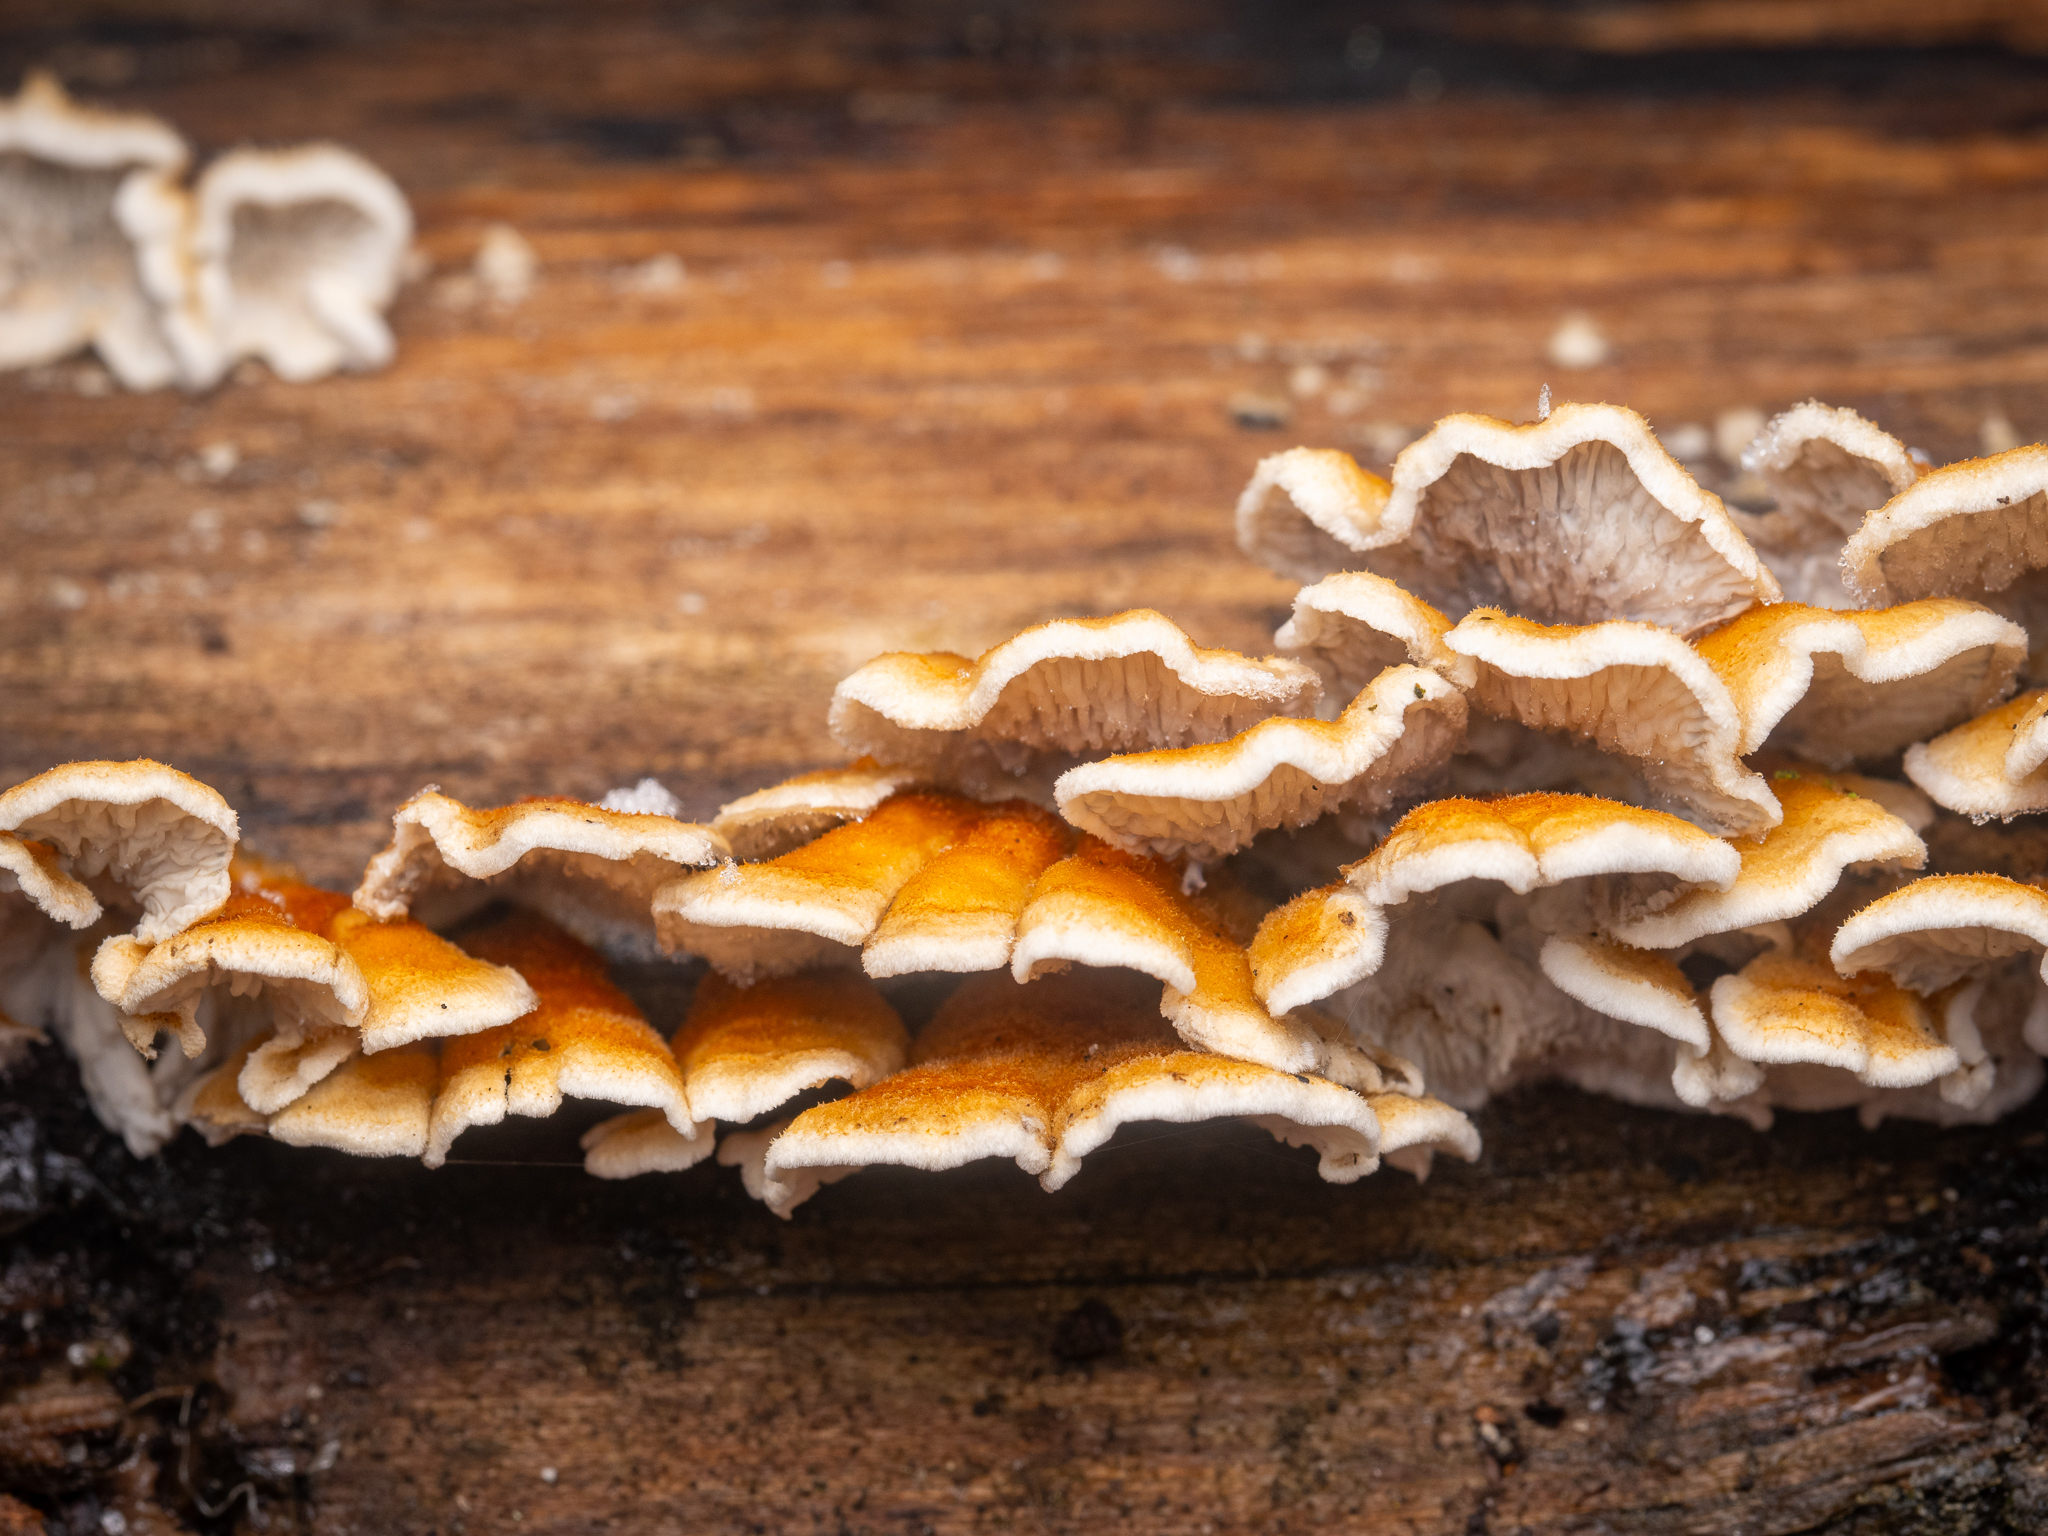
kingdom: Fungi
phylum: Basidiomycota
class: Agaricomycetes
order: Amylocorticiales
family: Amylocorticiaceae
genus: Plicaturopsis
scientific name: Plicaturopsis crispa
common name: Crimped gill
